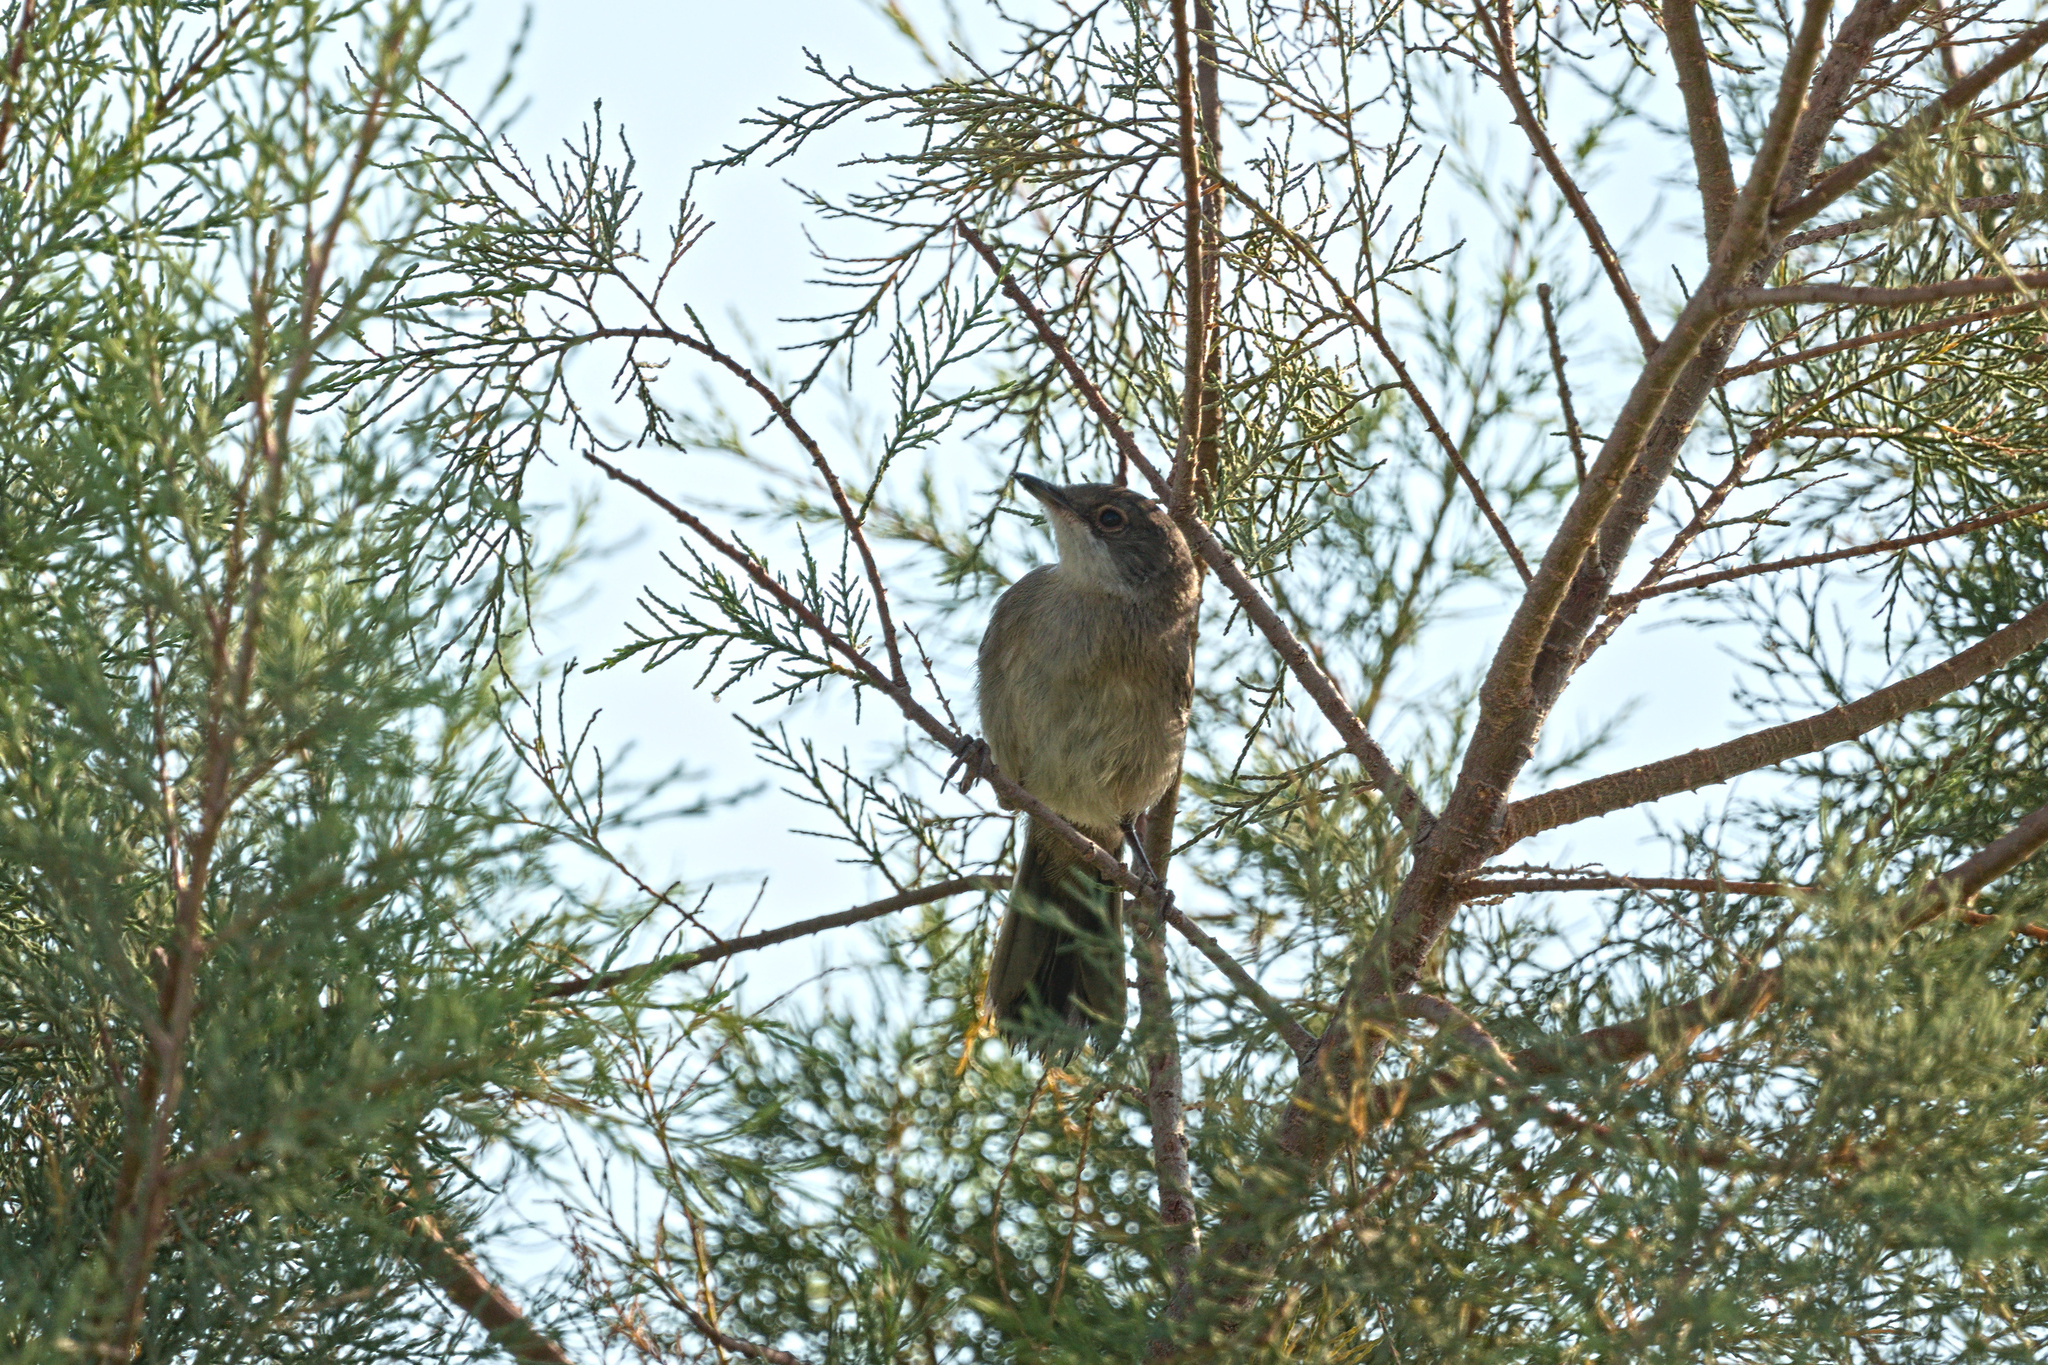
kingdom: Animalia
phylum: Chordata
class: Aves
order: Passeriformes
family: Sylviidae
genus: Curruca
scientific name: Curruca melanocephala
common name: Sardinian warbler
